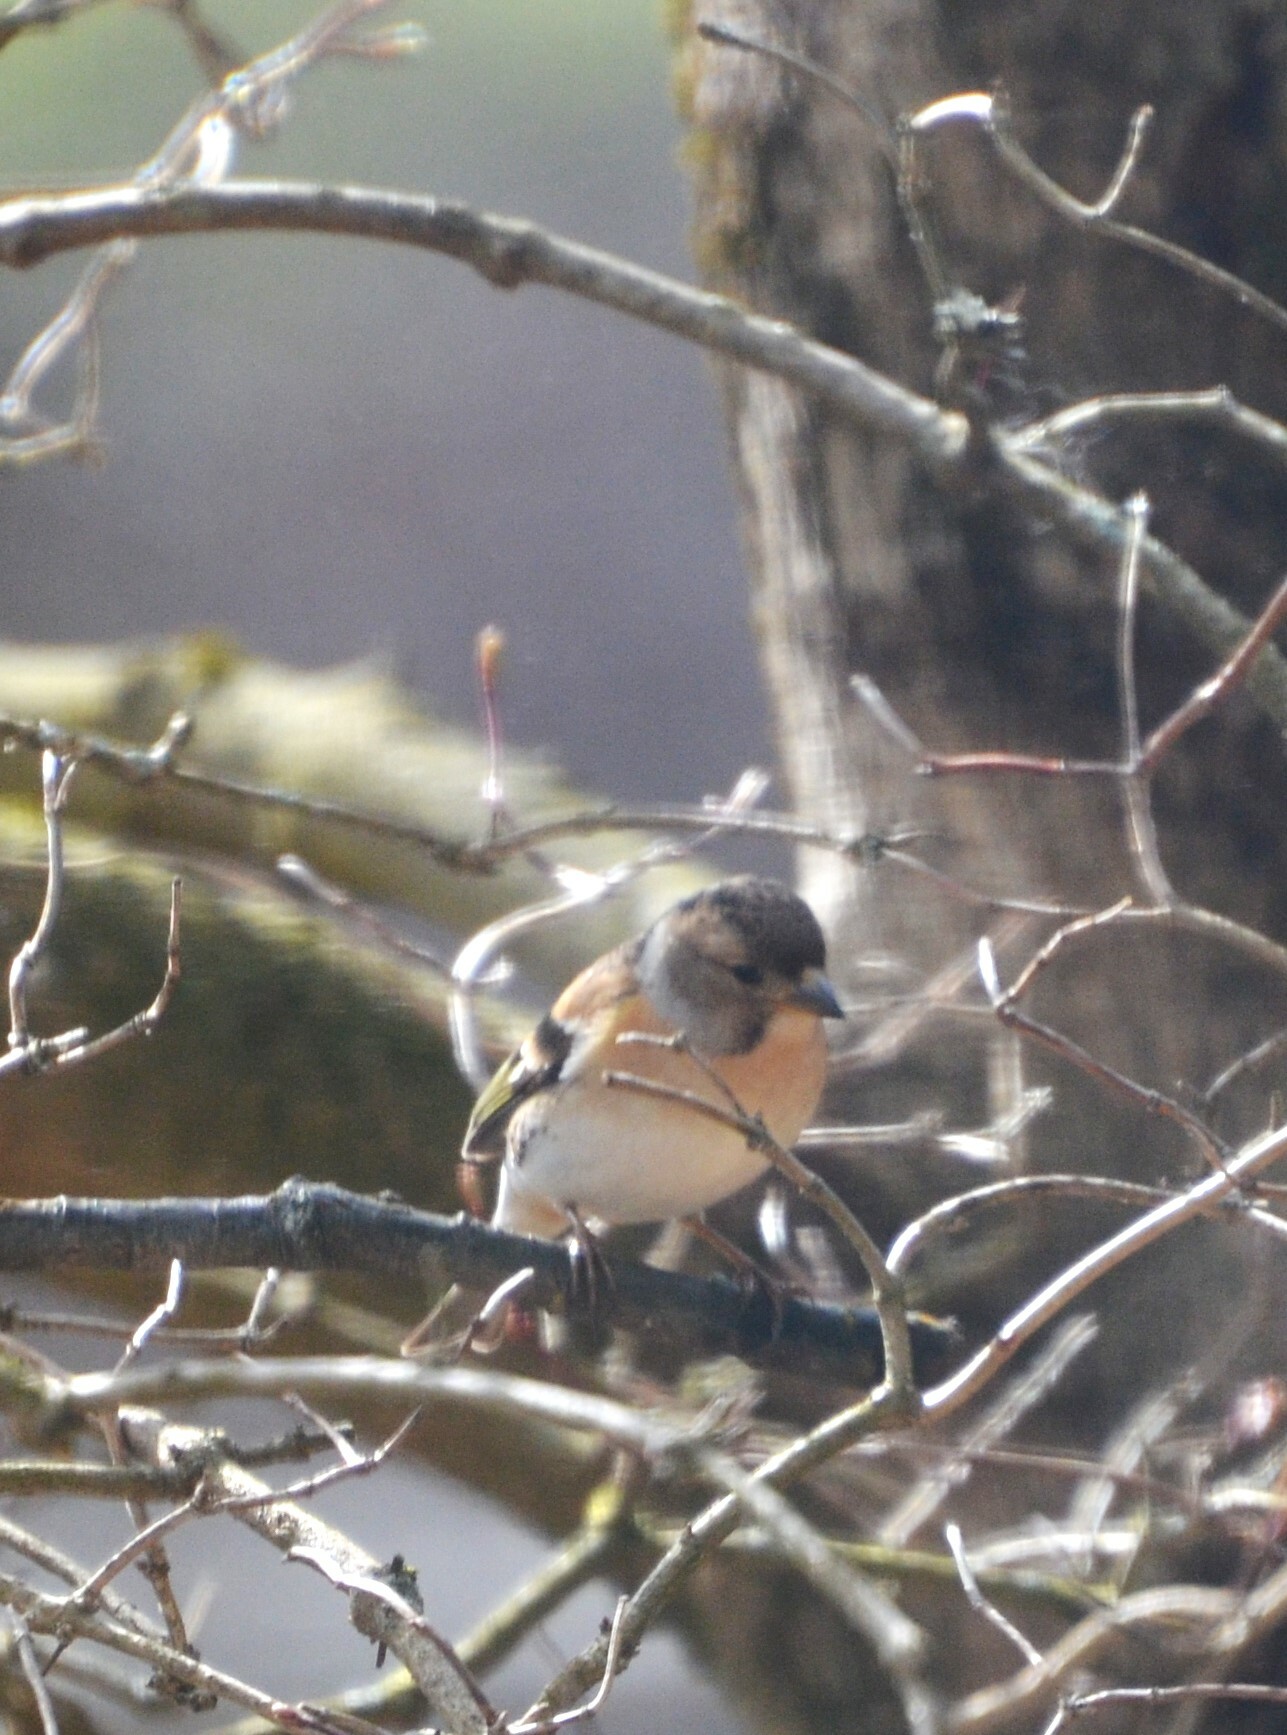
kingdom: Animalia
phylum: Chordata
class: Aves
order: Passeriformes
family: Fringillidae
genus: Fringilla
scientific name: Fringilla montifringilla
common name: Brambling
